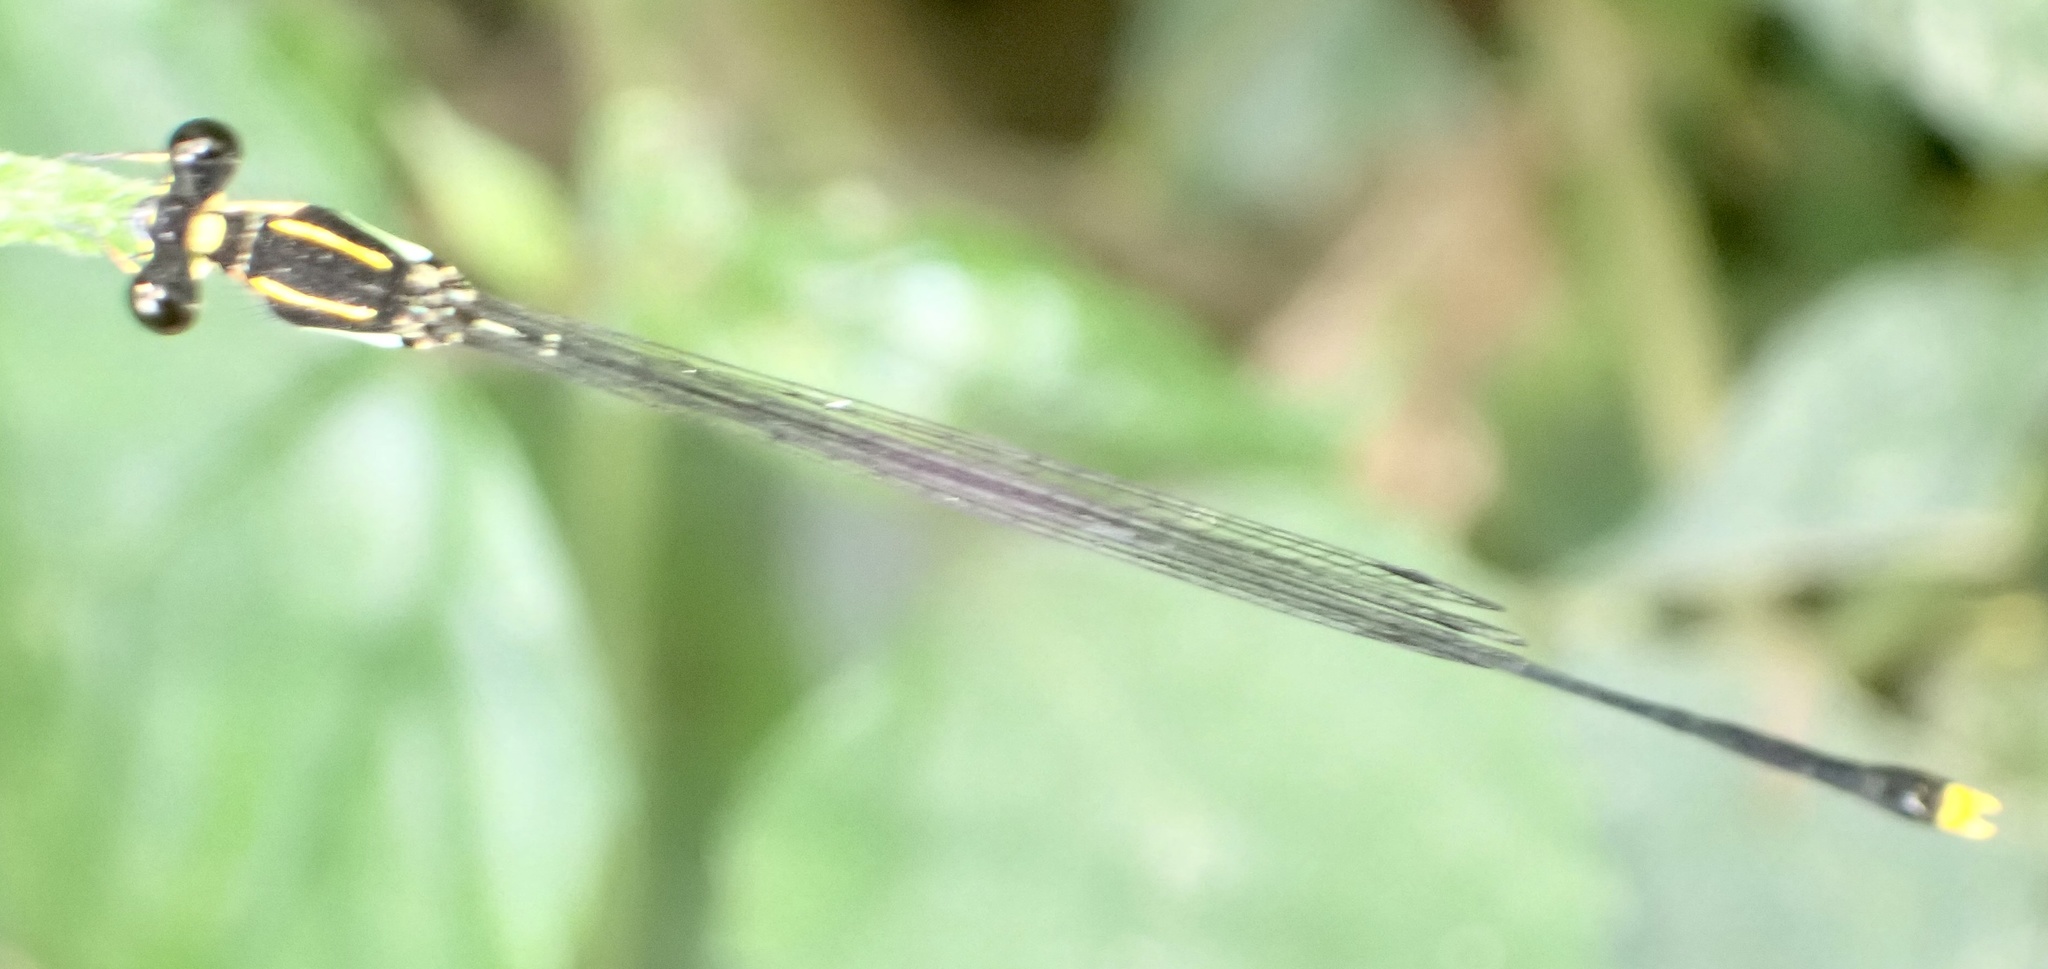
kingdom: Animalia
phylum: Arthropoda
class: Insecta
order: Odonata
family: Platycnemididae
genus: Allocnemis
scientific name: Allocnemis elongata
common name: Orange yellowwing
